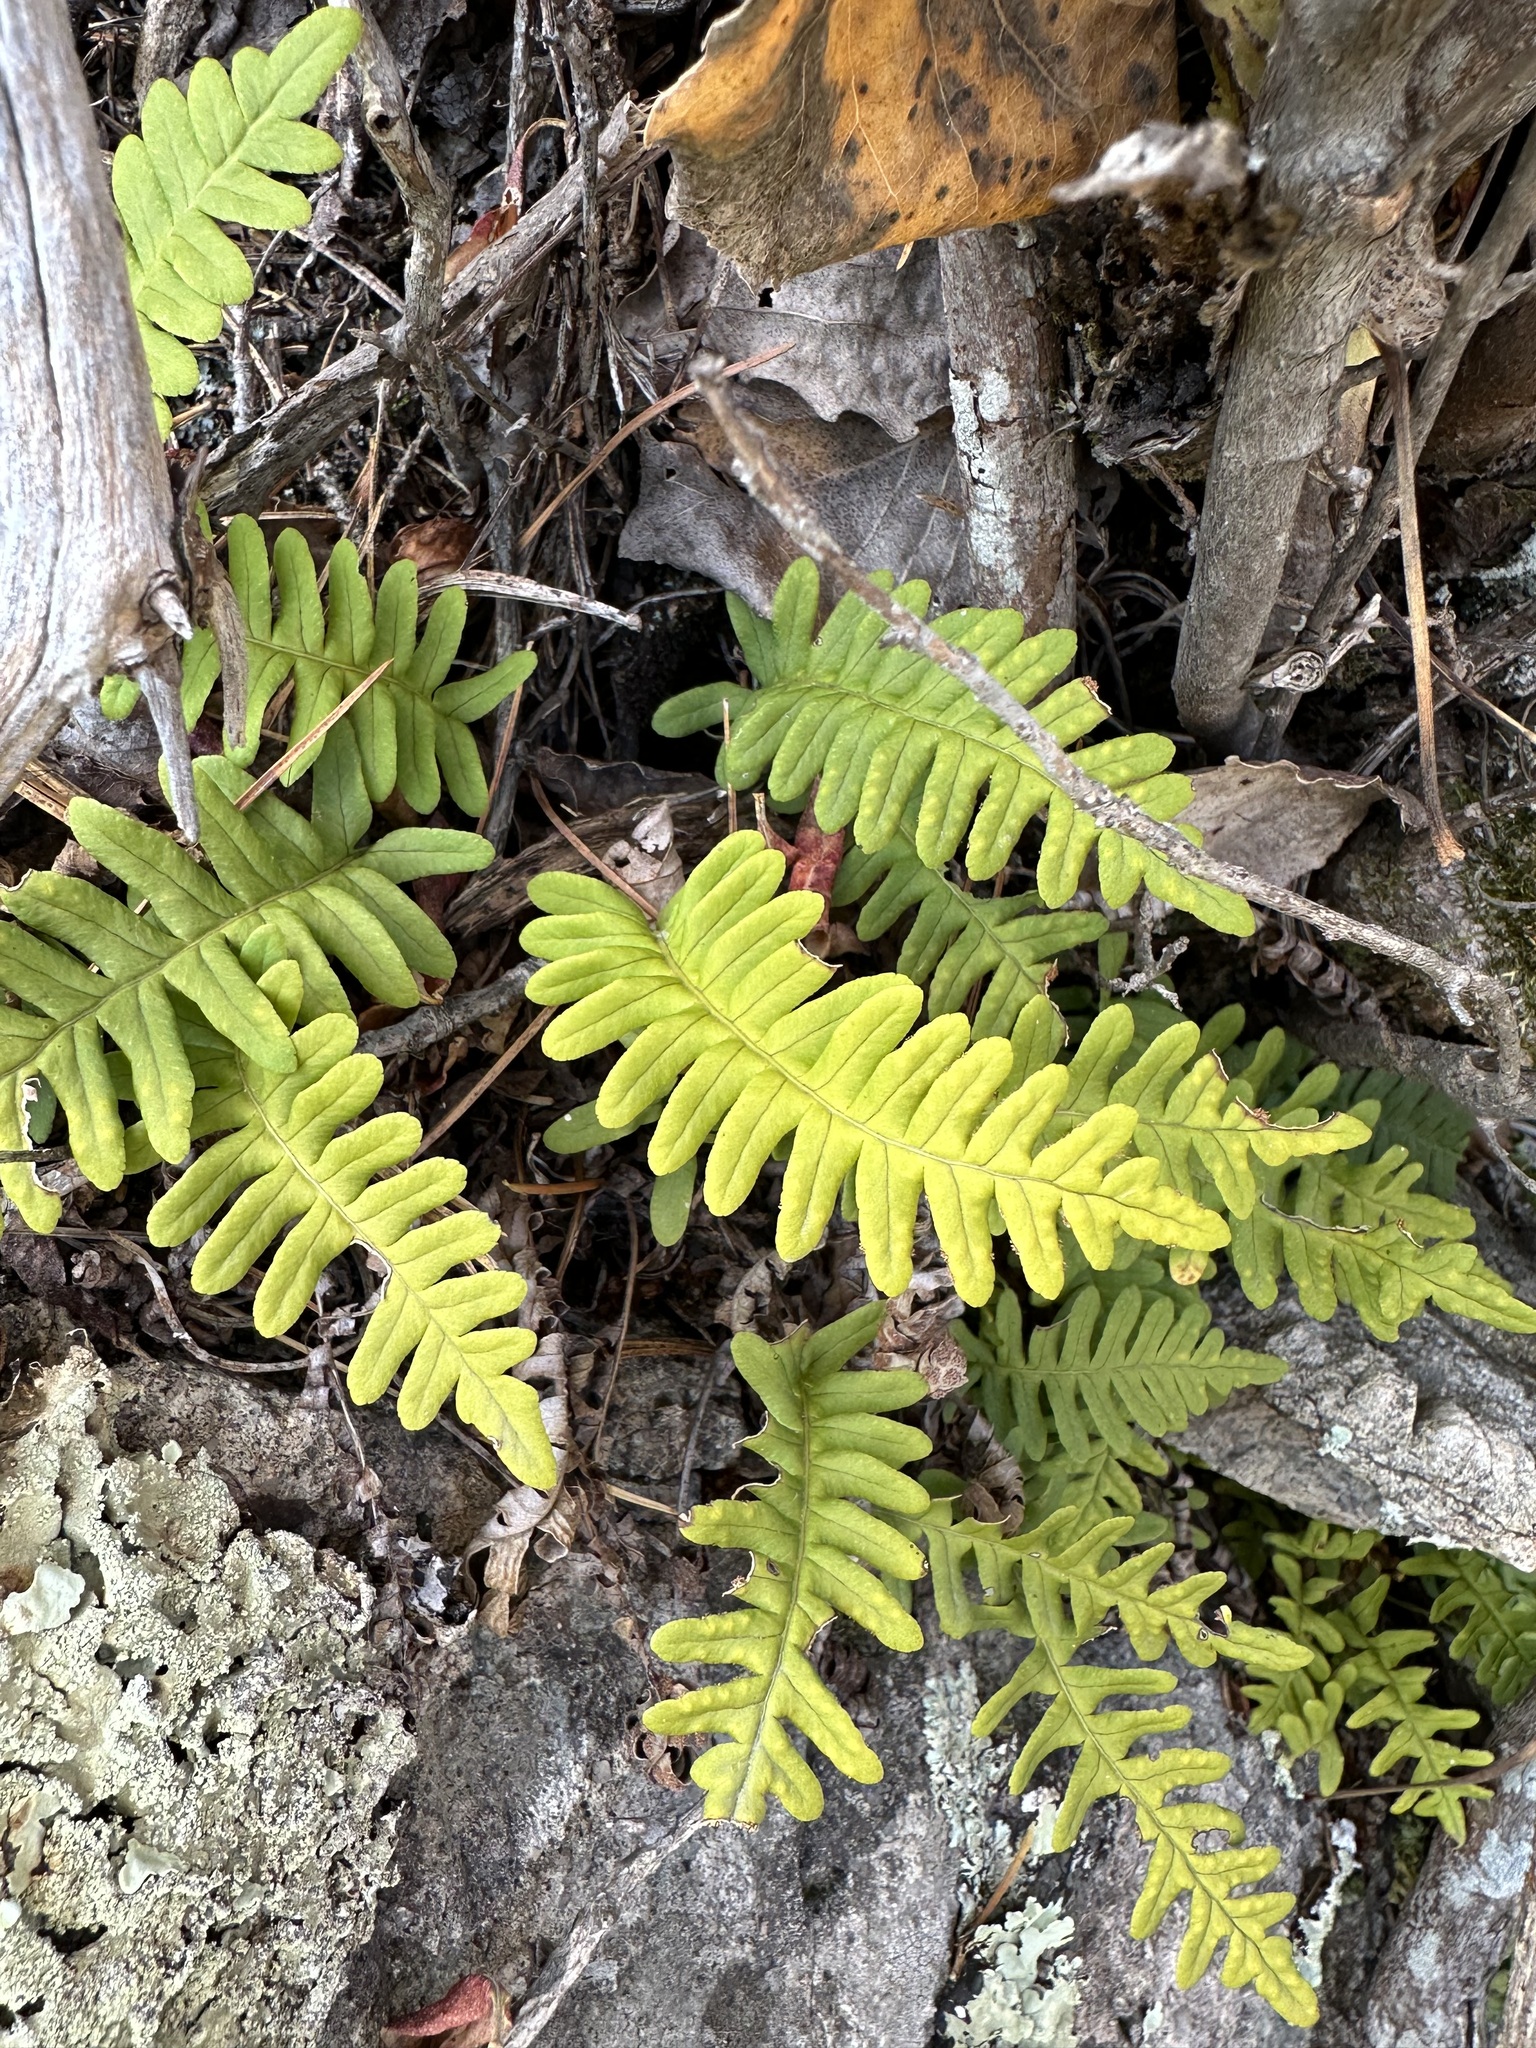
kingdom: Plantae
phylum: Tracheophyta
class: Polypodiopsida
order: Polypodiales
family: Polypodiaceae
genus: Polypodium
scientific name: Polypodium sibiricum
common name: Siberian polypody
